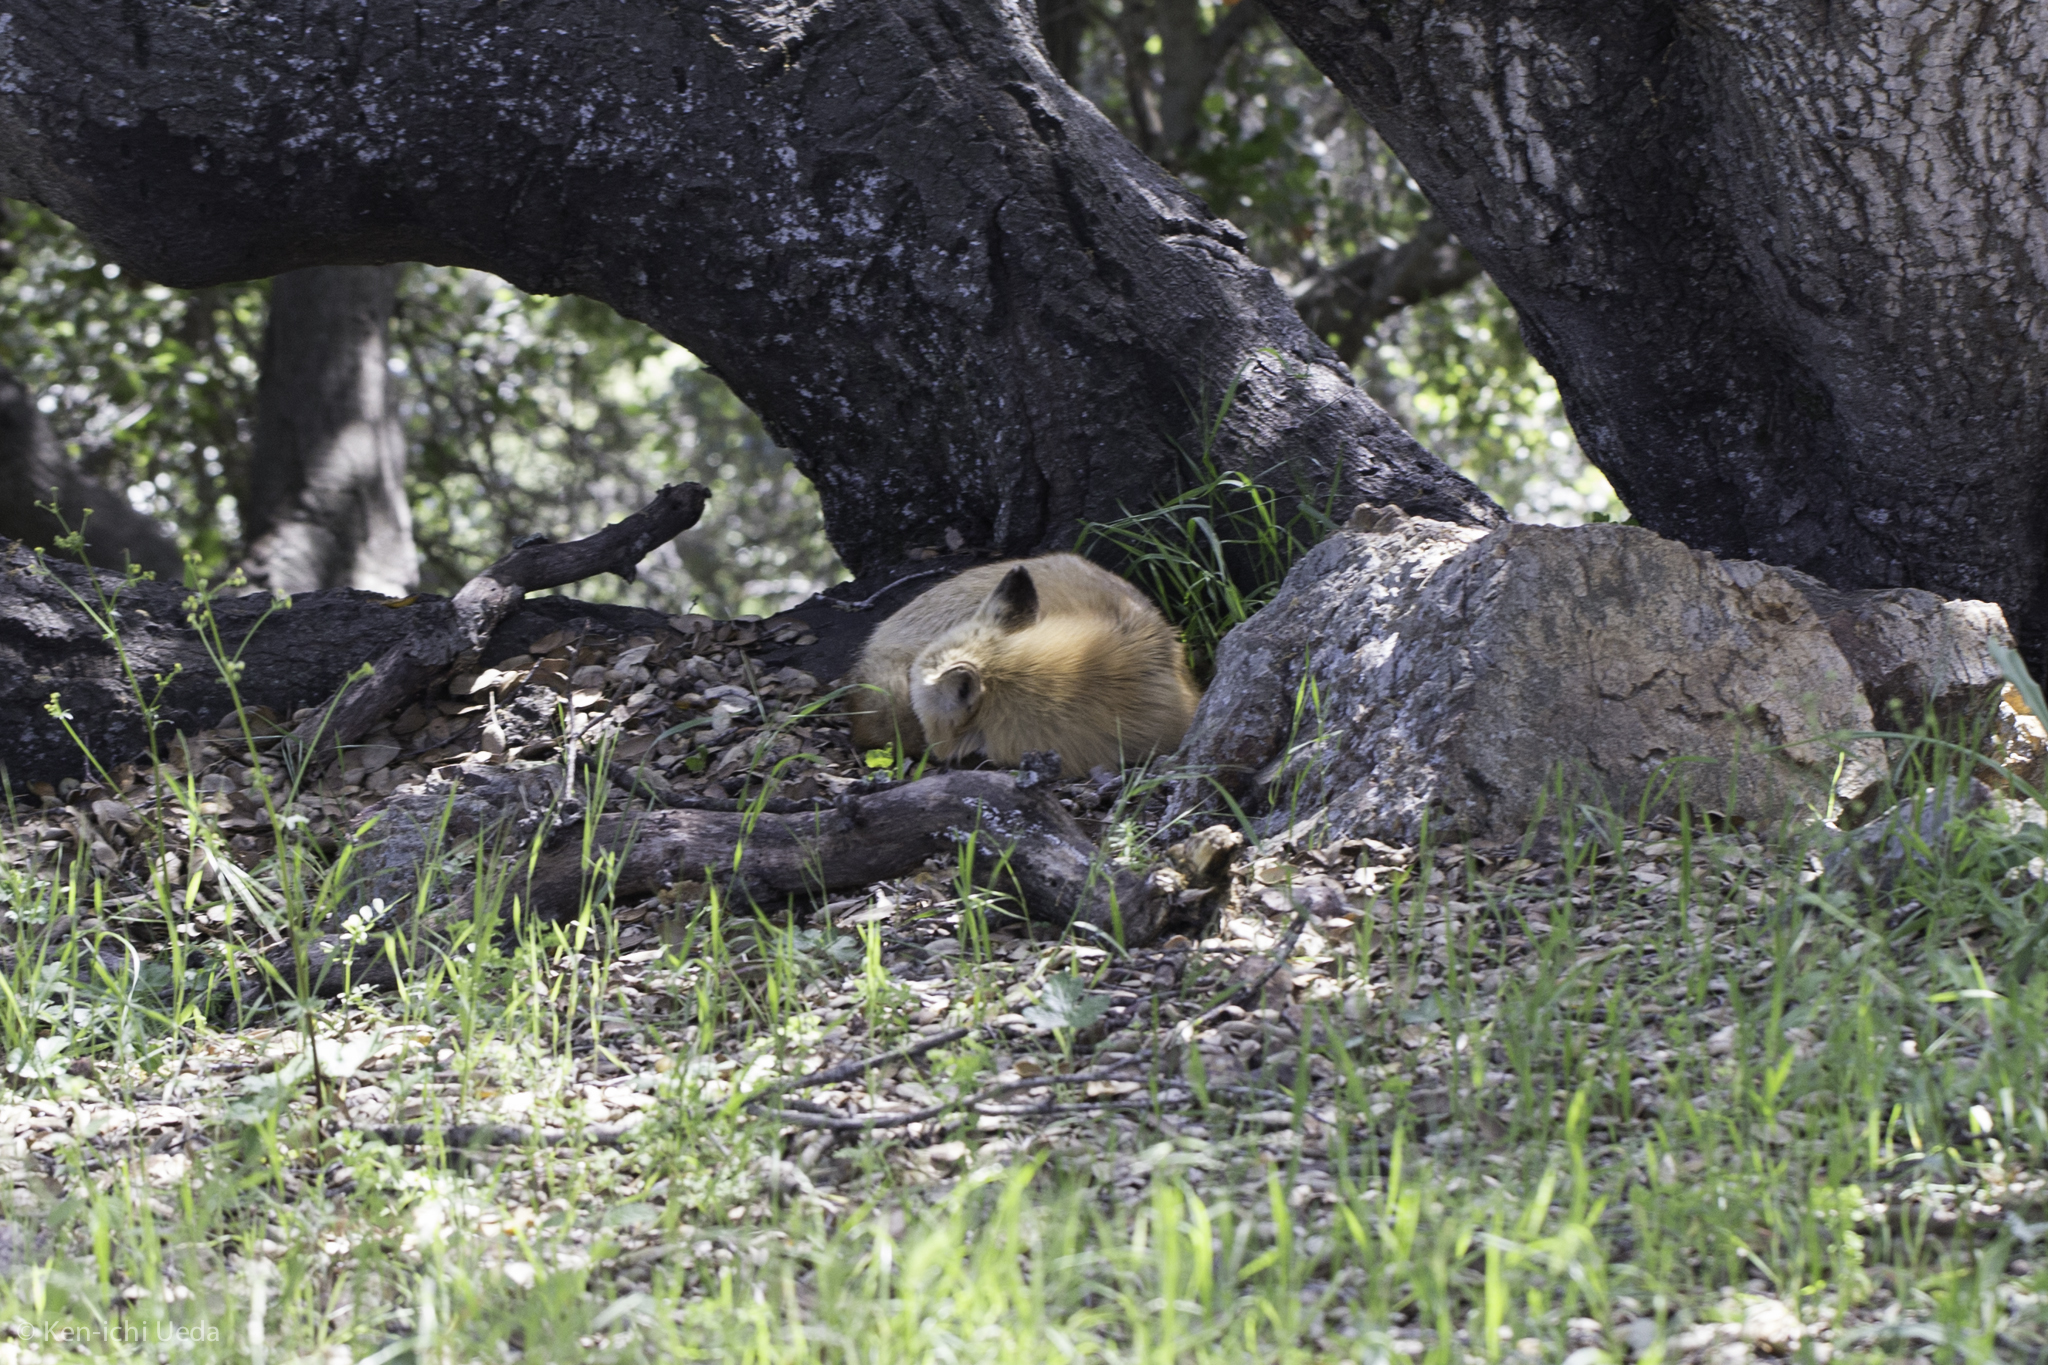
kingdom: Animalia
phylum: Chordata
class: Mammalia
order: Carnivora
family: Canidae
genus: Vulpes
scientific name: Vulpes vulpes
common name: Red fox
